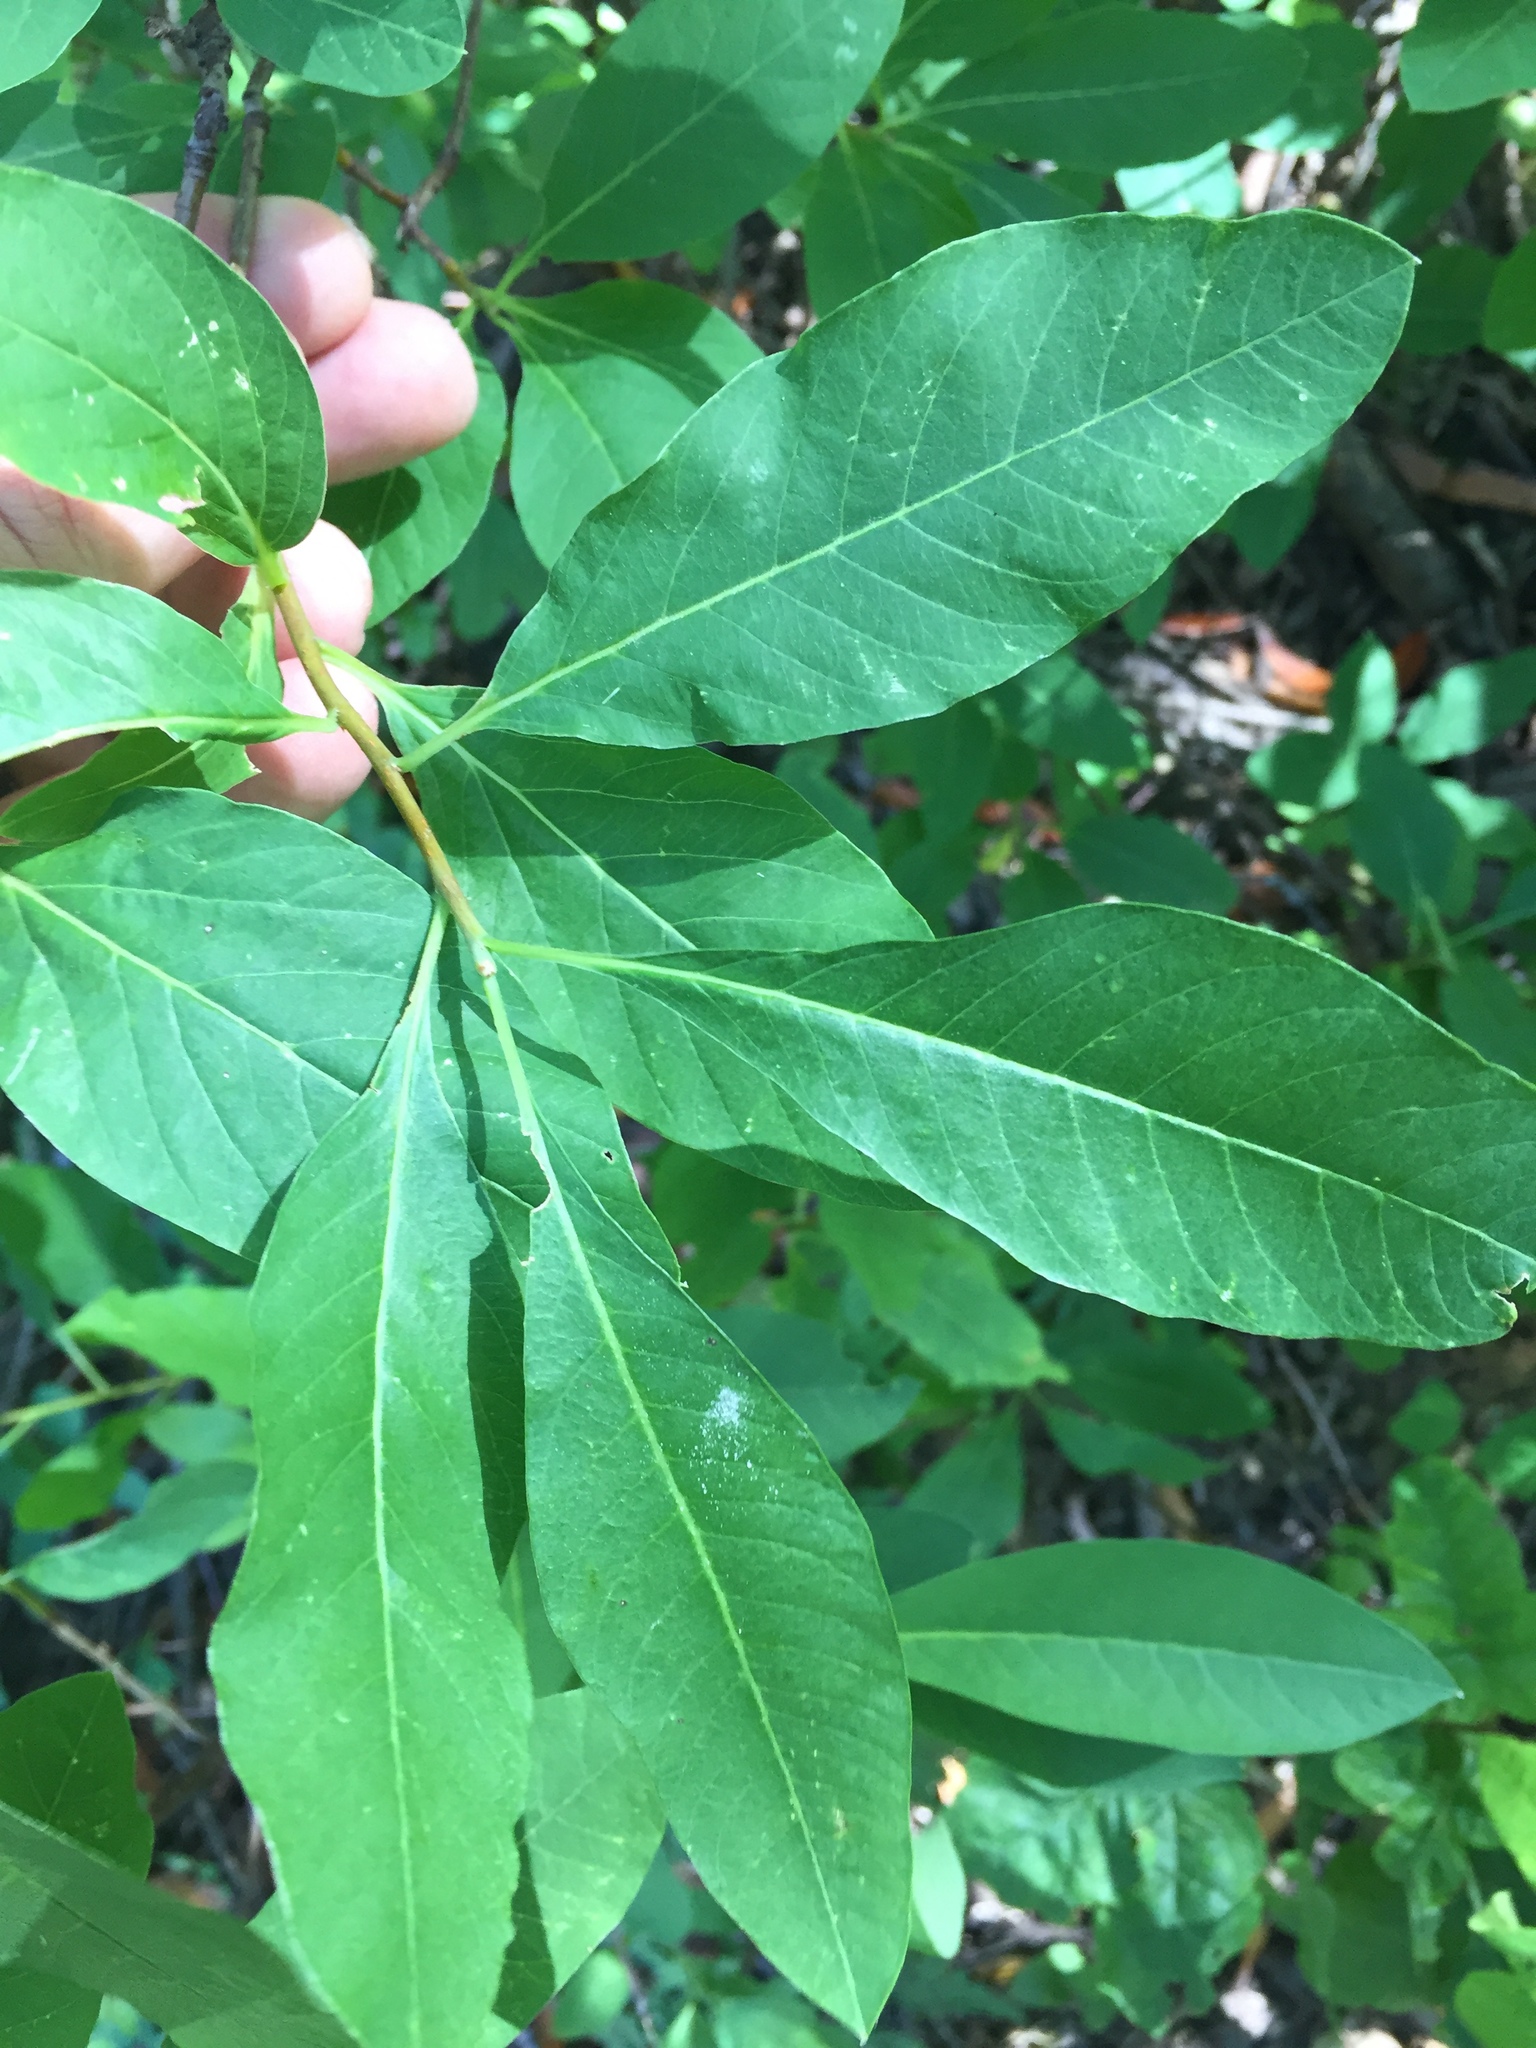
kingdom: Plantae
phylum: Tracheophyta
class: Magnoliopsida
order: Rosales
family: Rosaceae
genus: Oemleria
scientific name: Oemleria cerasiformis
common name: Osoberry
